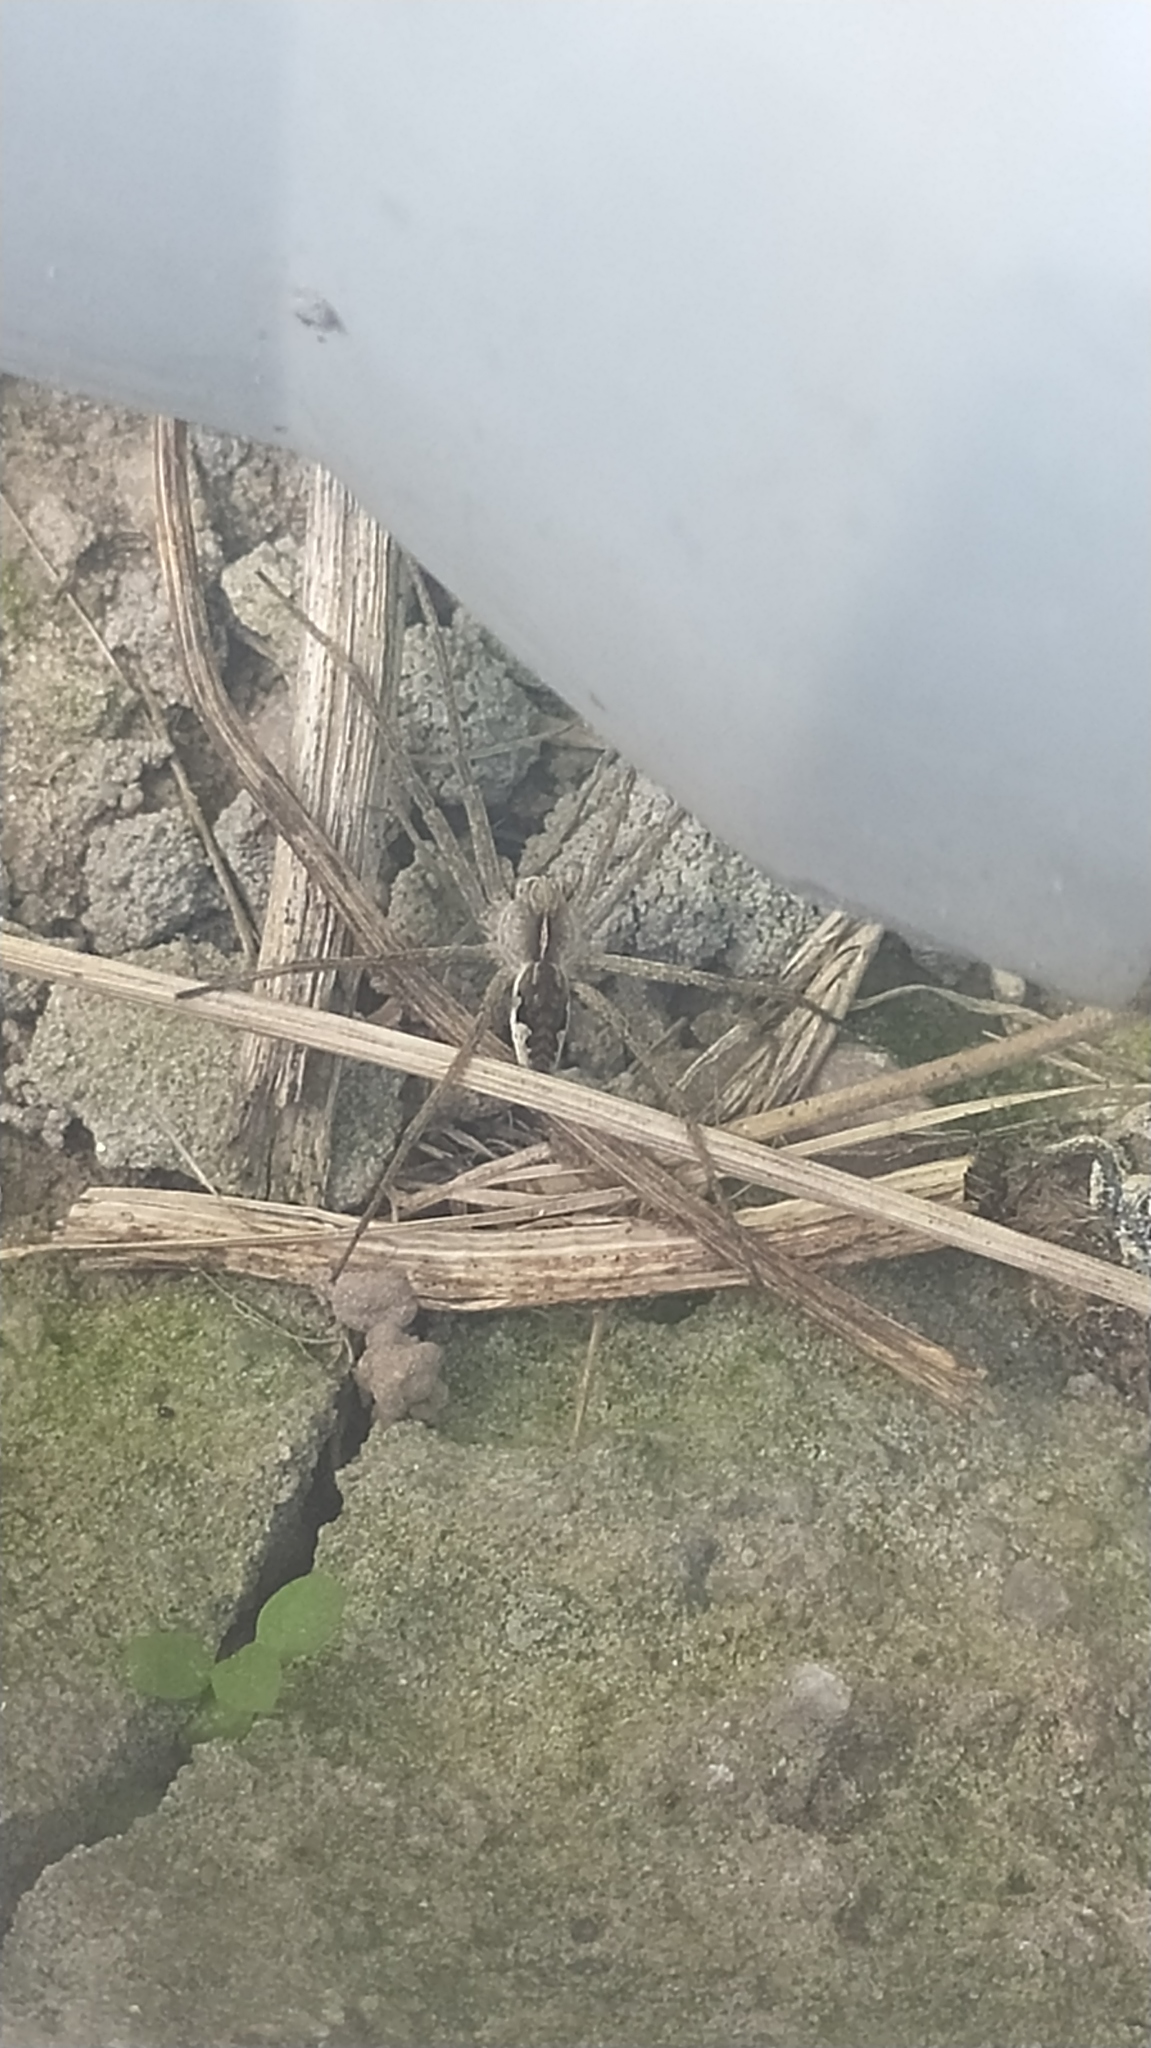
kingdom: Animalia
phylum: Arthropoda
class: Arachnida
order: Araneae
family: Pisauridae
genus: Pisaura
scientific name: Pisaura mirabilis
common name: Tent spider
